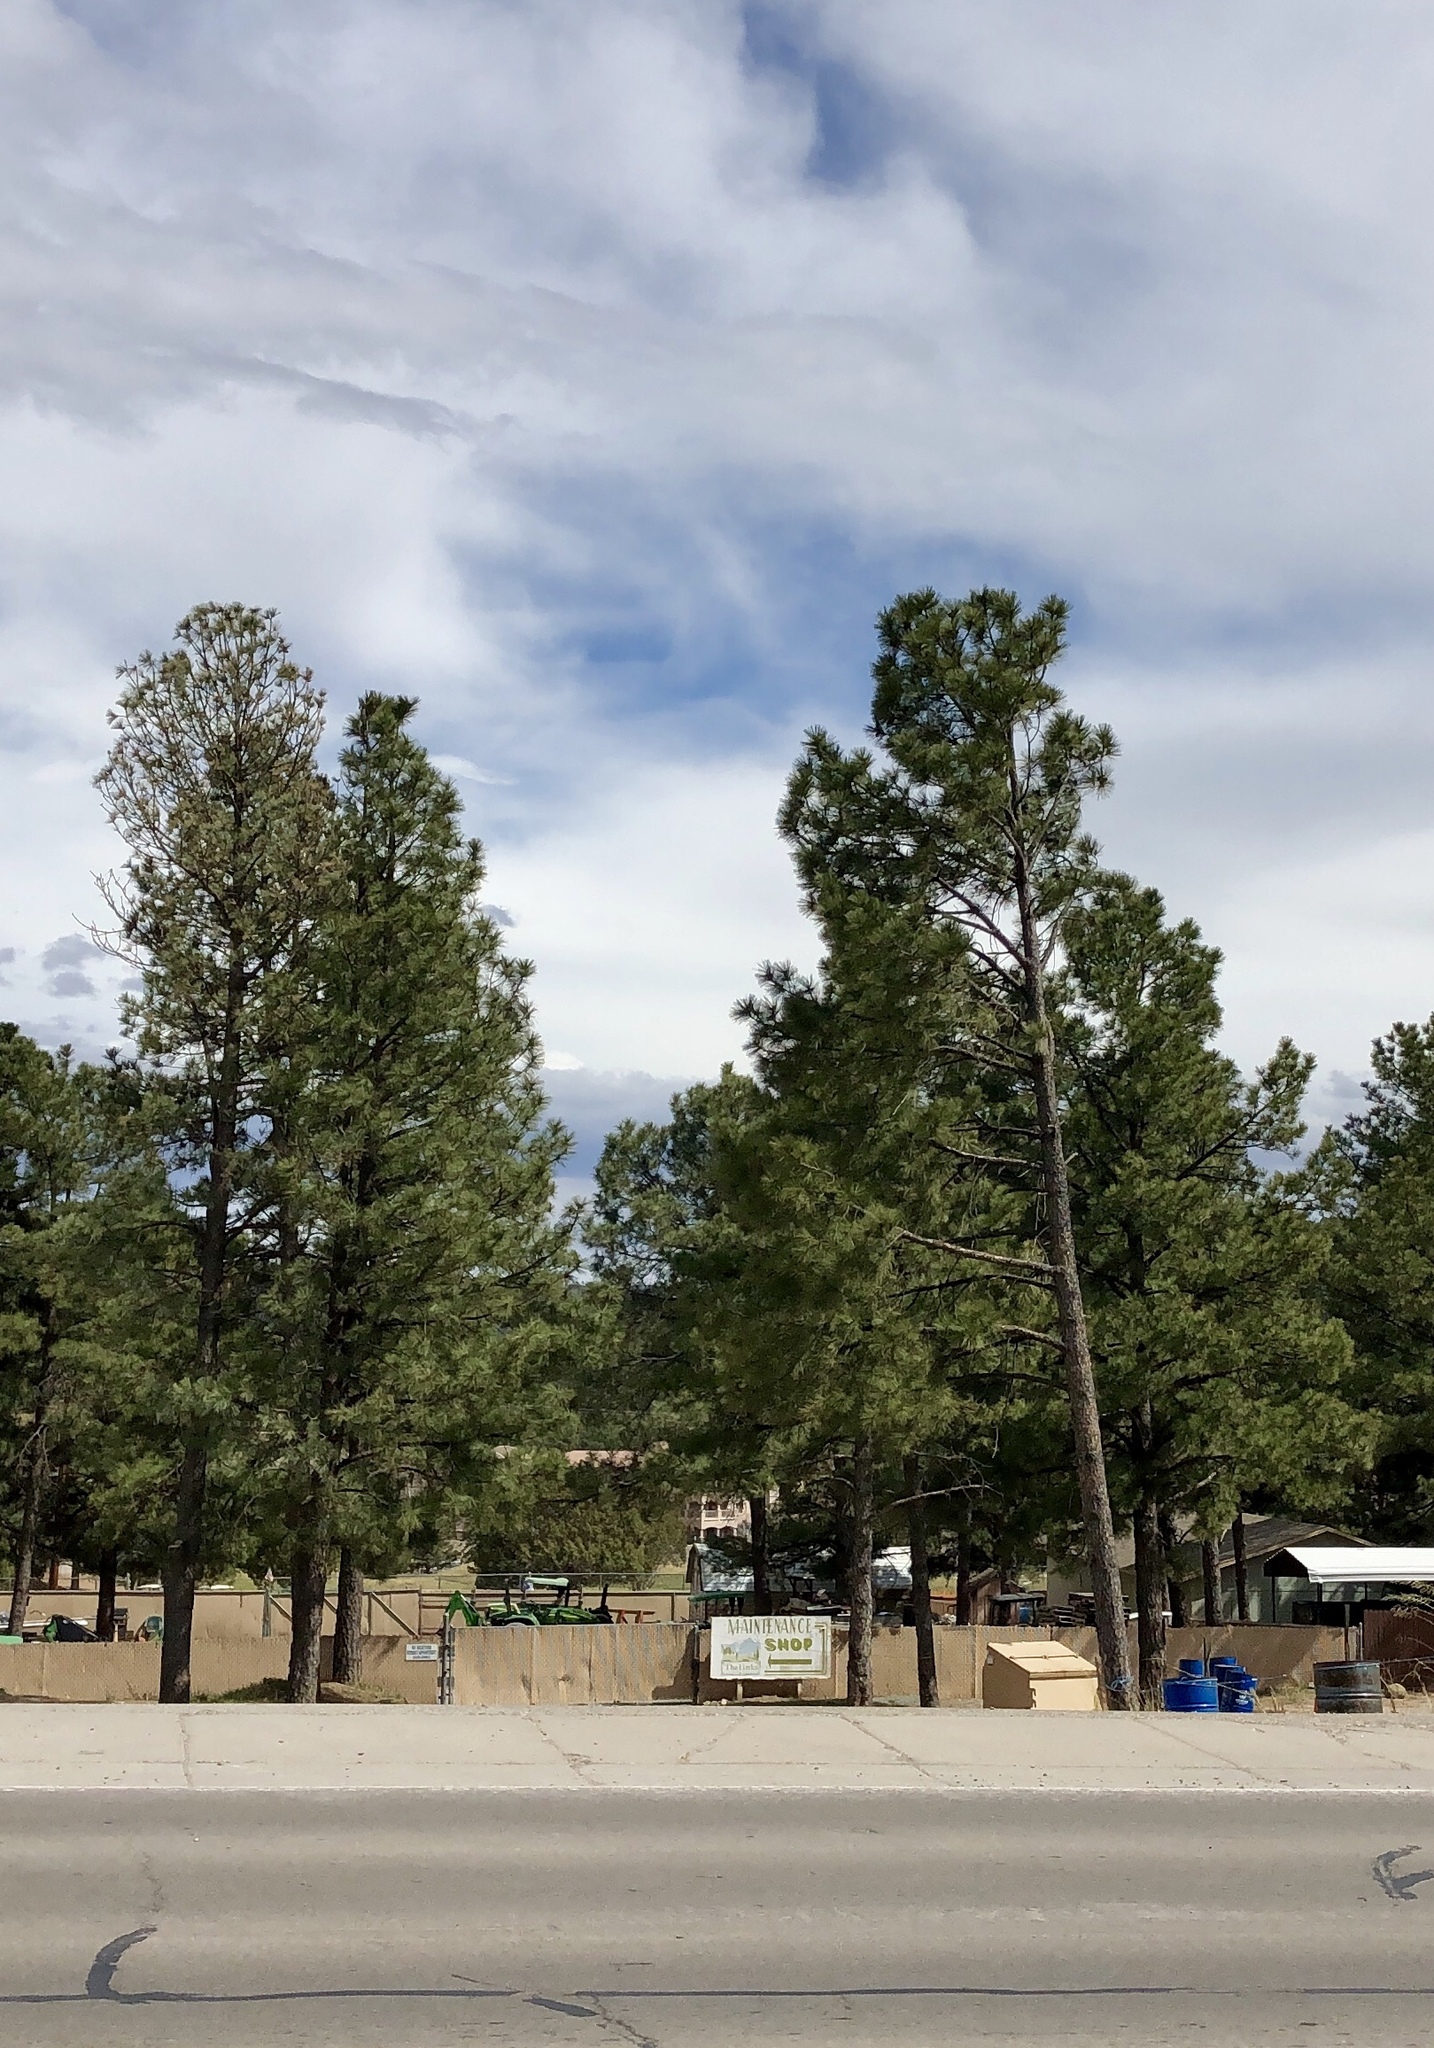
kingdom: Plantae
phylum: Tracheophyta
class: Pinopsida
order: Pinales
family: Pinaceae
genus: Pinus
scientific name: Pinus ponderosa
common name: Western yellow-pine
